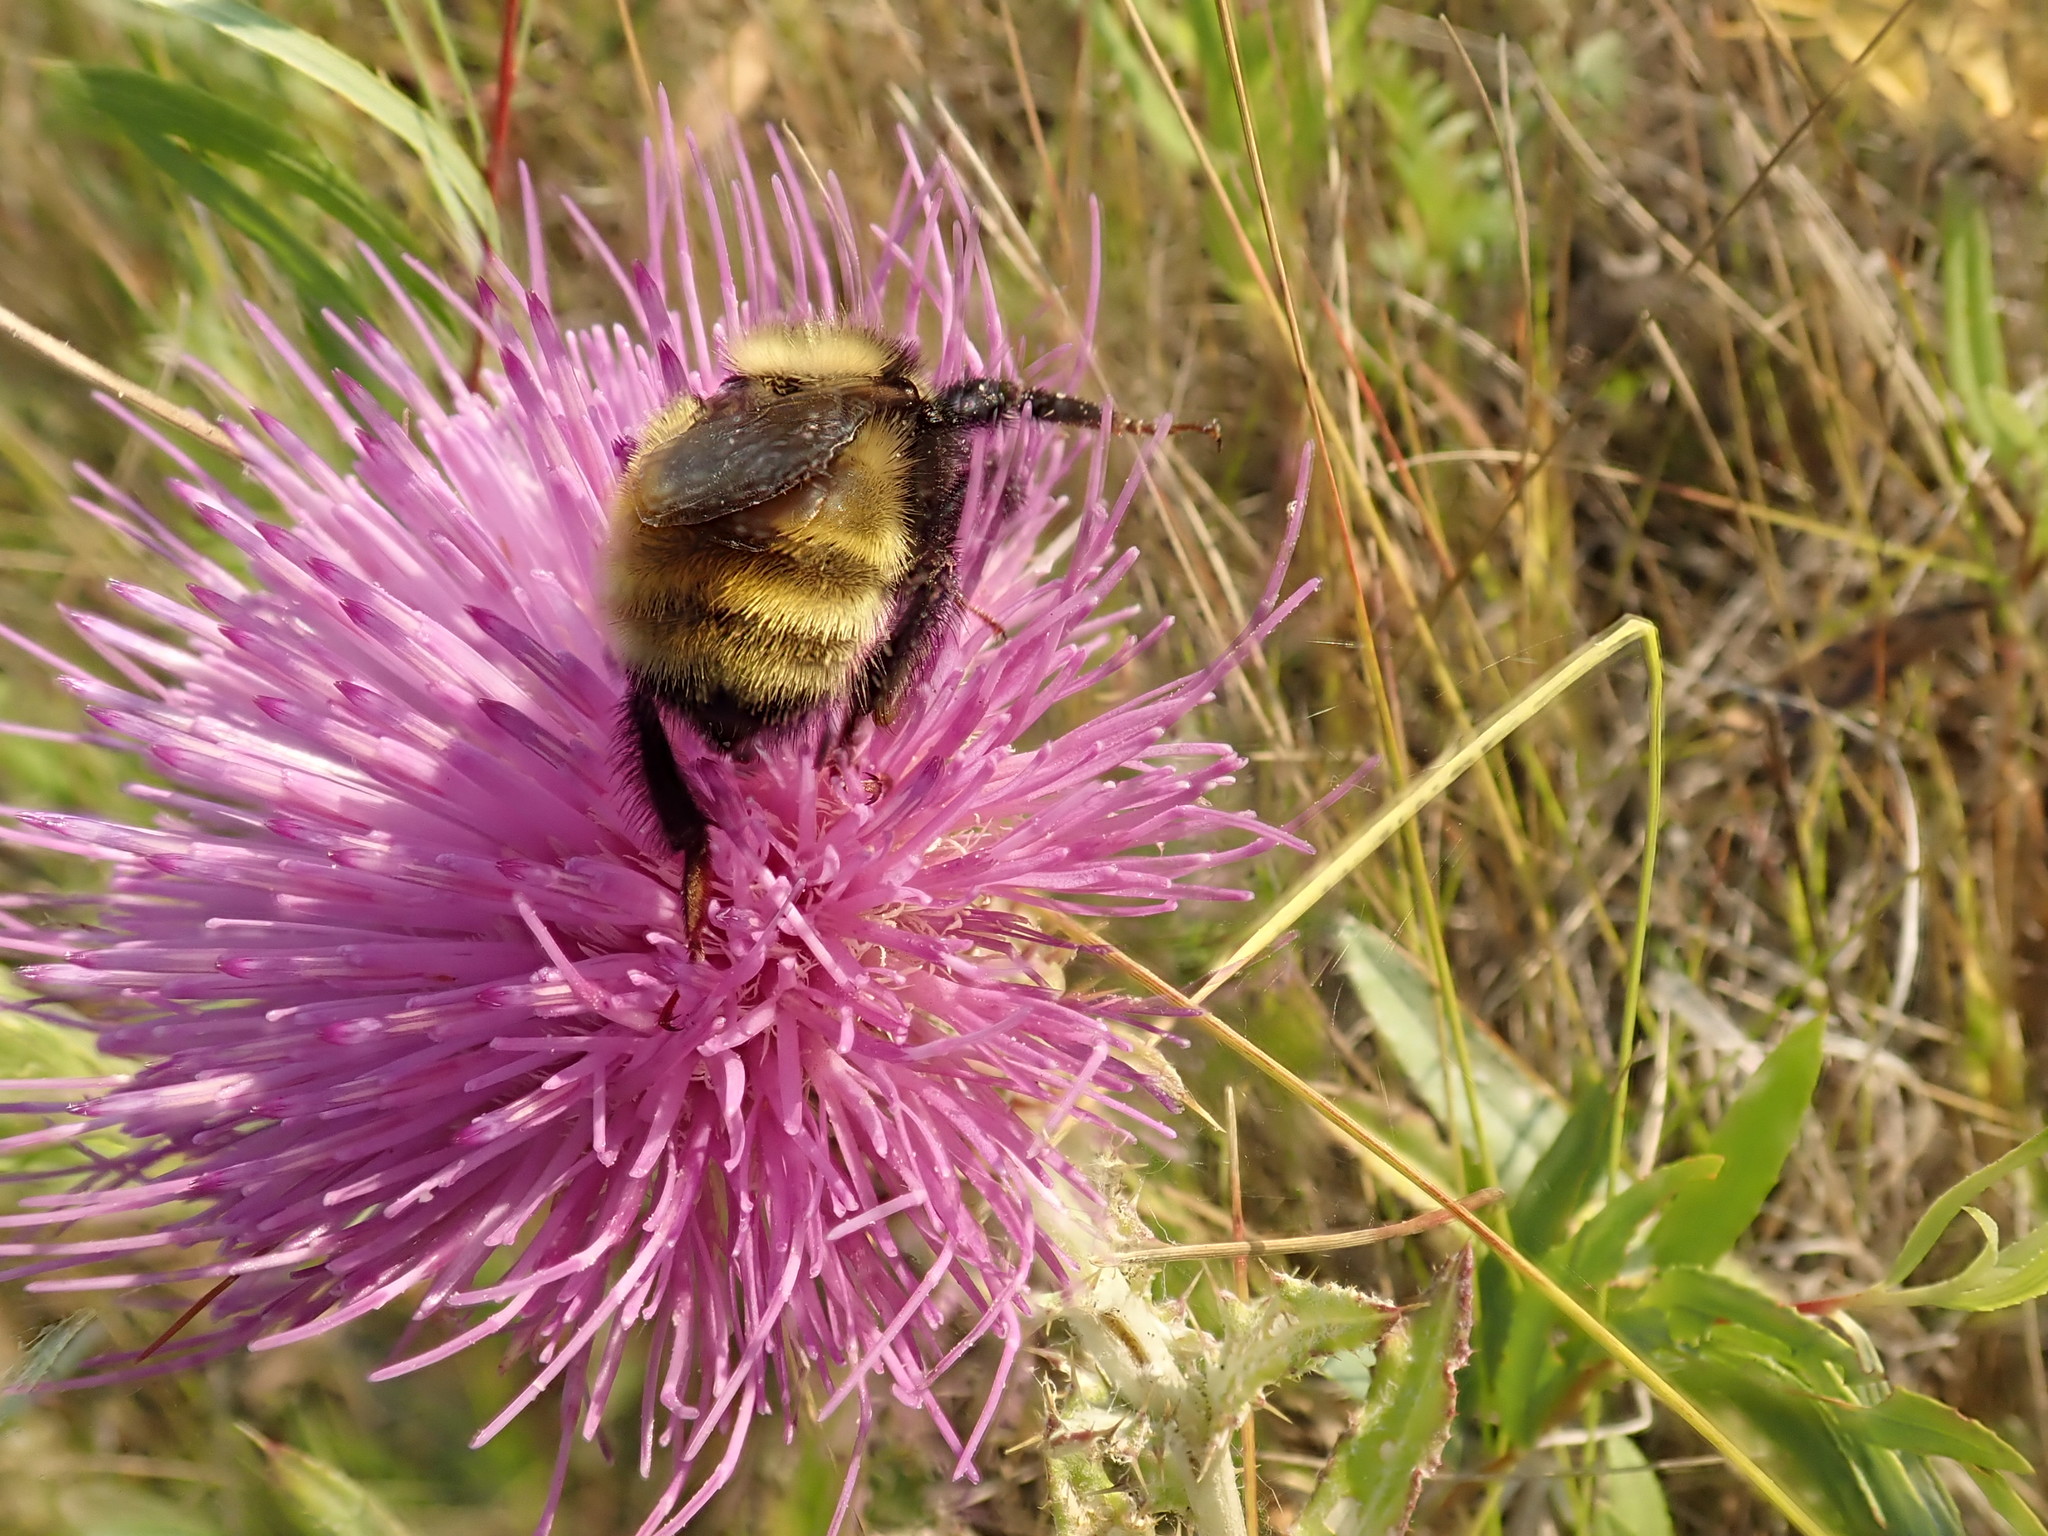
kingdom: Animalia
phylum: Arthropoda
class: Insecta
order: Hymenoptera
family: Apidae
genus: Bombus
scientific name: Bombus borealis
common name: Northern amber bumble bee
